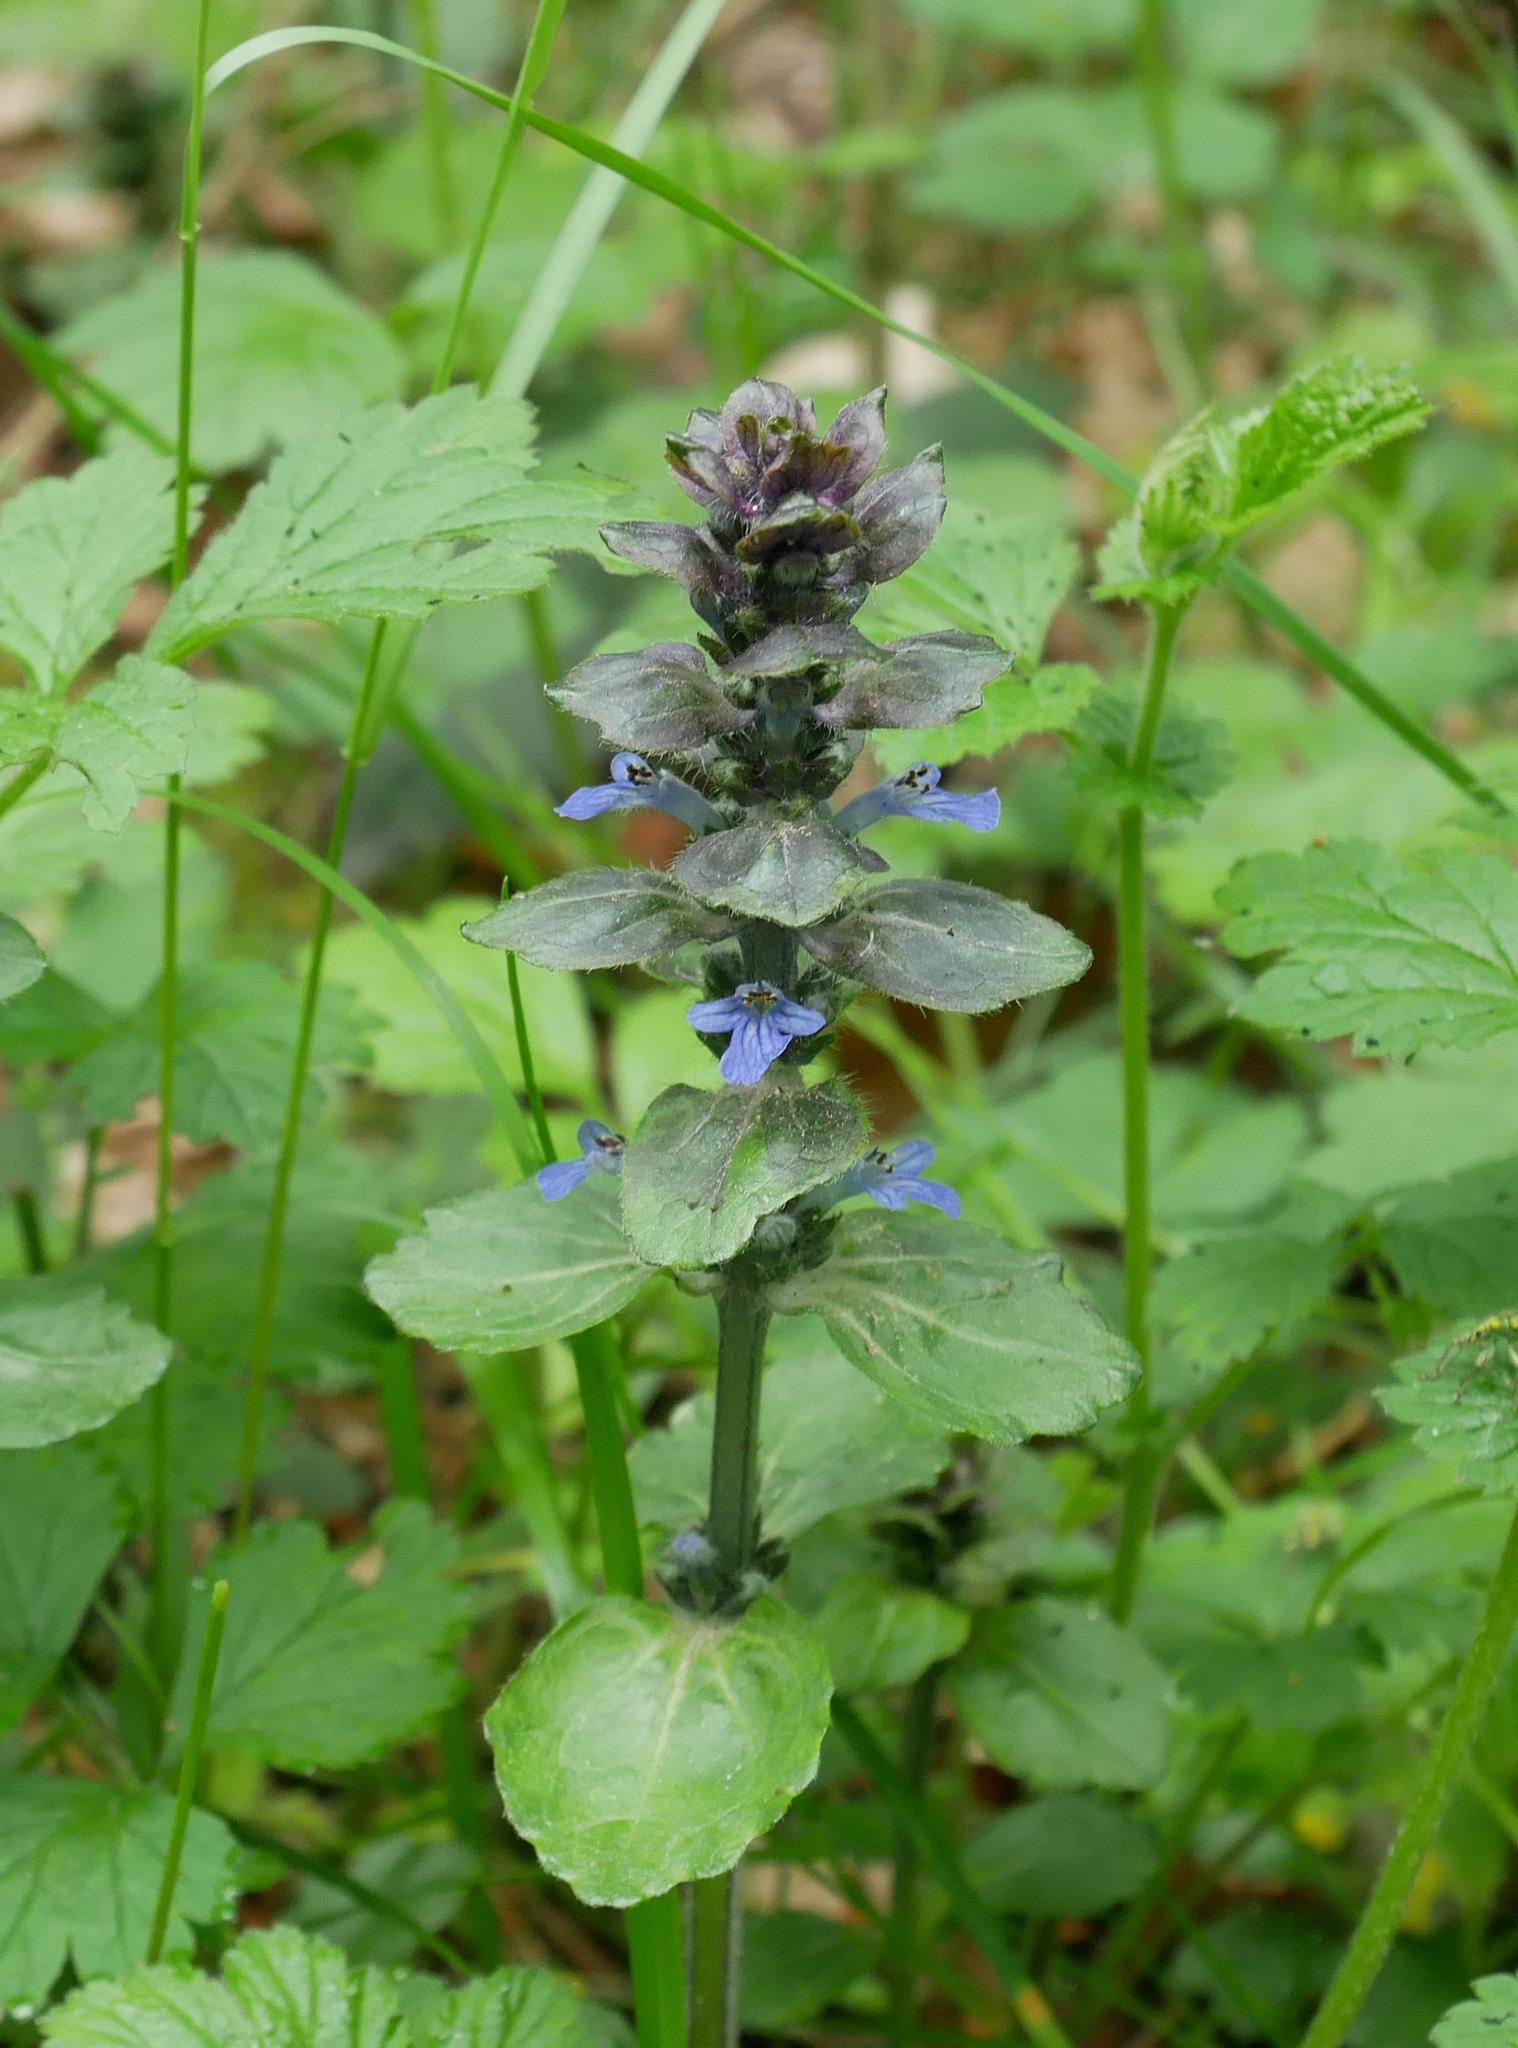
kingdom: Plantae
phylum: Tracheophyta
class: Magnoliopsida
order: Lamiales
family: Lamiaceae
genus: Ajuga
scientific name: Ajuga reptans
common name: Bugle
